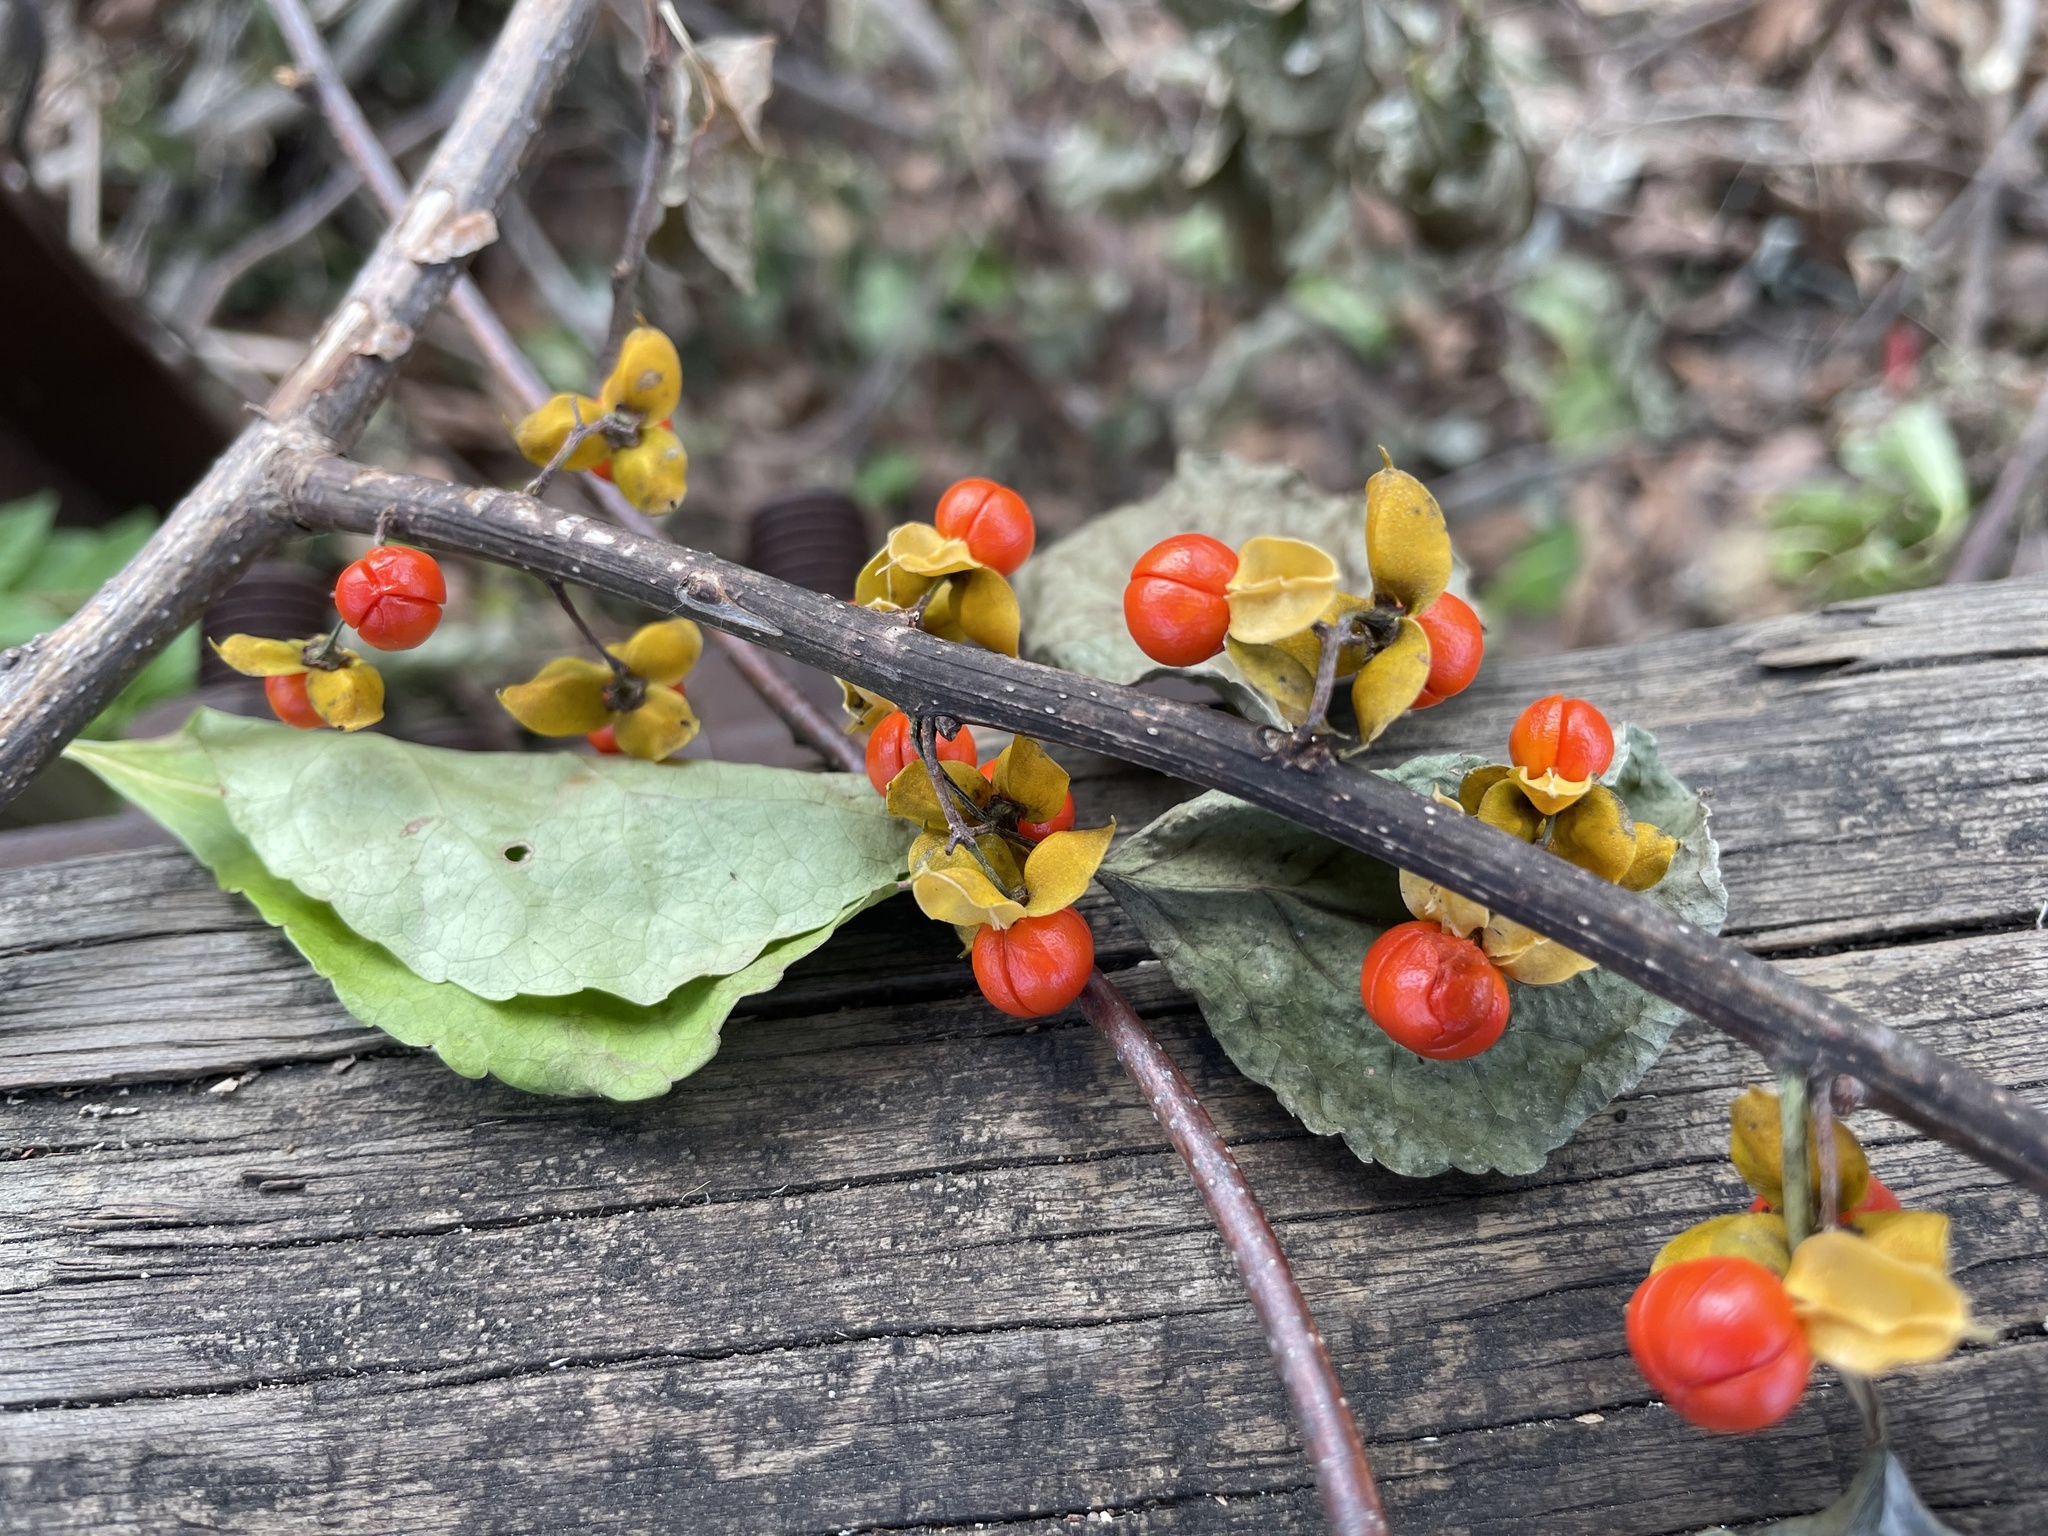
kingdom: Plantae
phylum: Tracheophyta
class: Magnoliopsida
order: Celastrales
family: Celastraceae
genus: Celastrus
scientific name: Celastrus orbiculatus
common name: Oriental bittersweet
